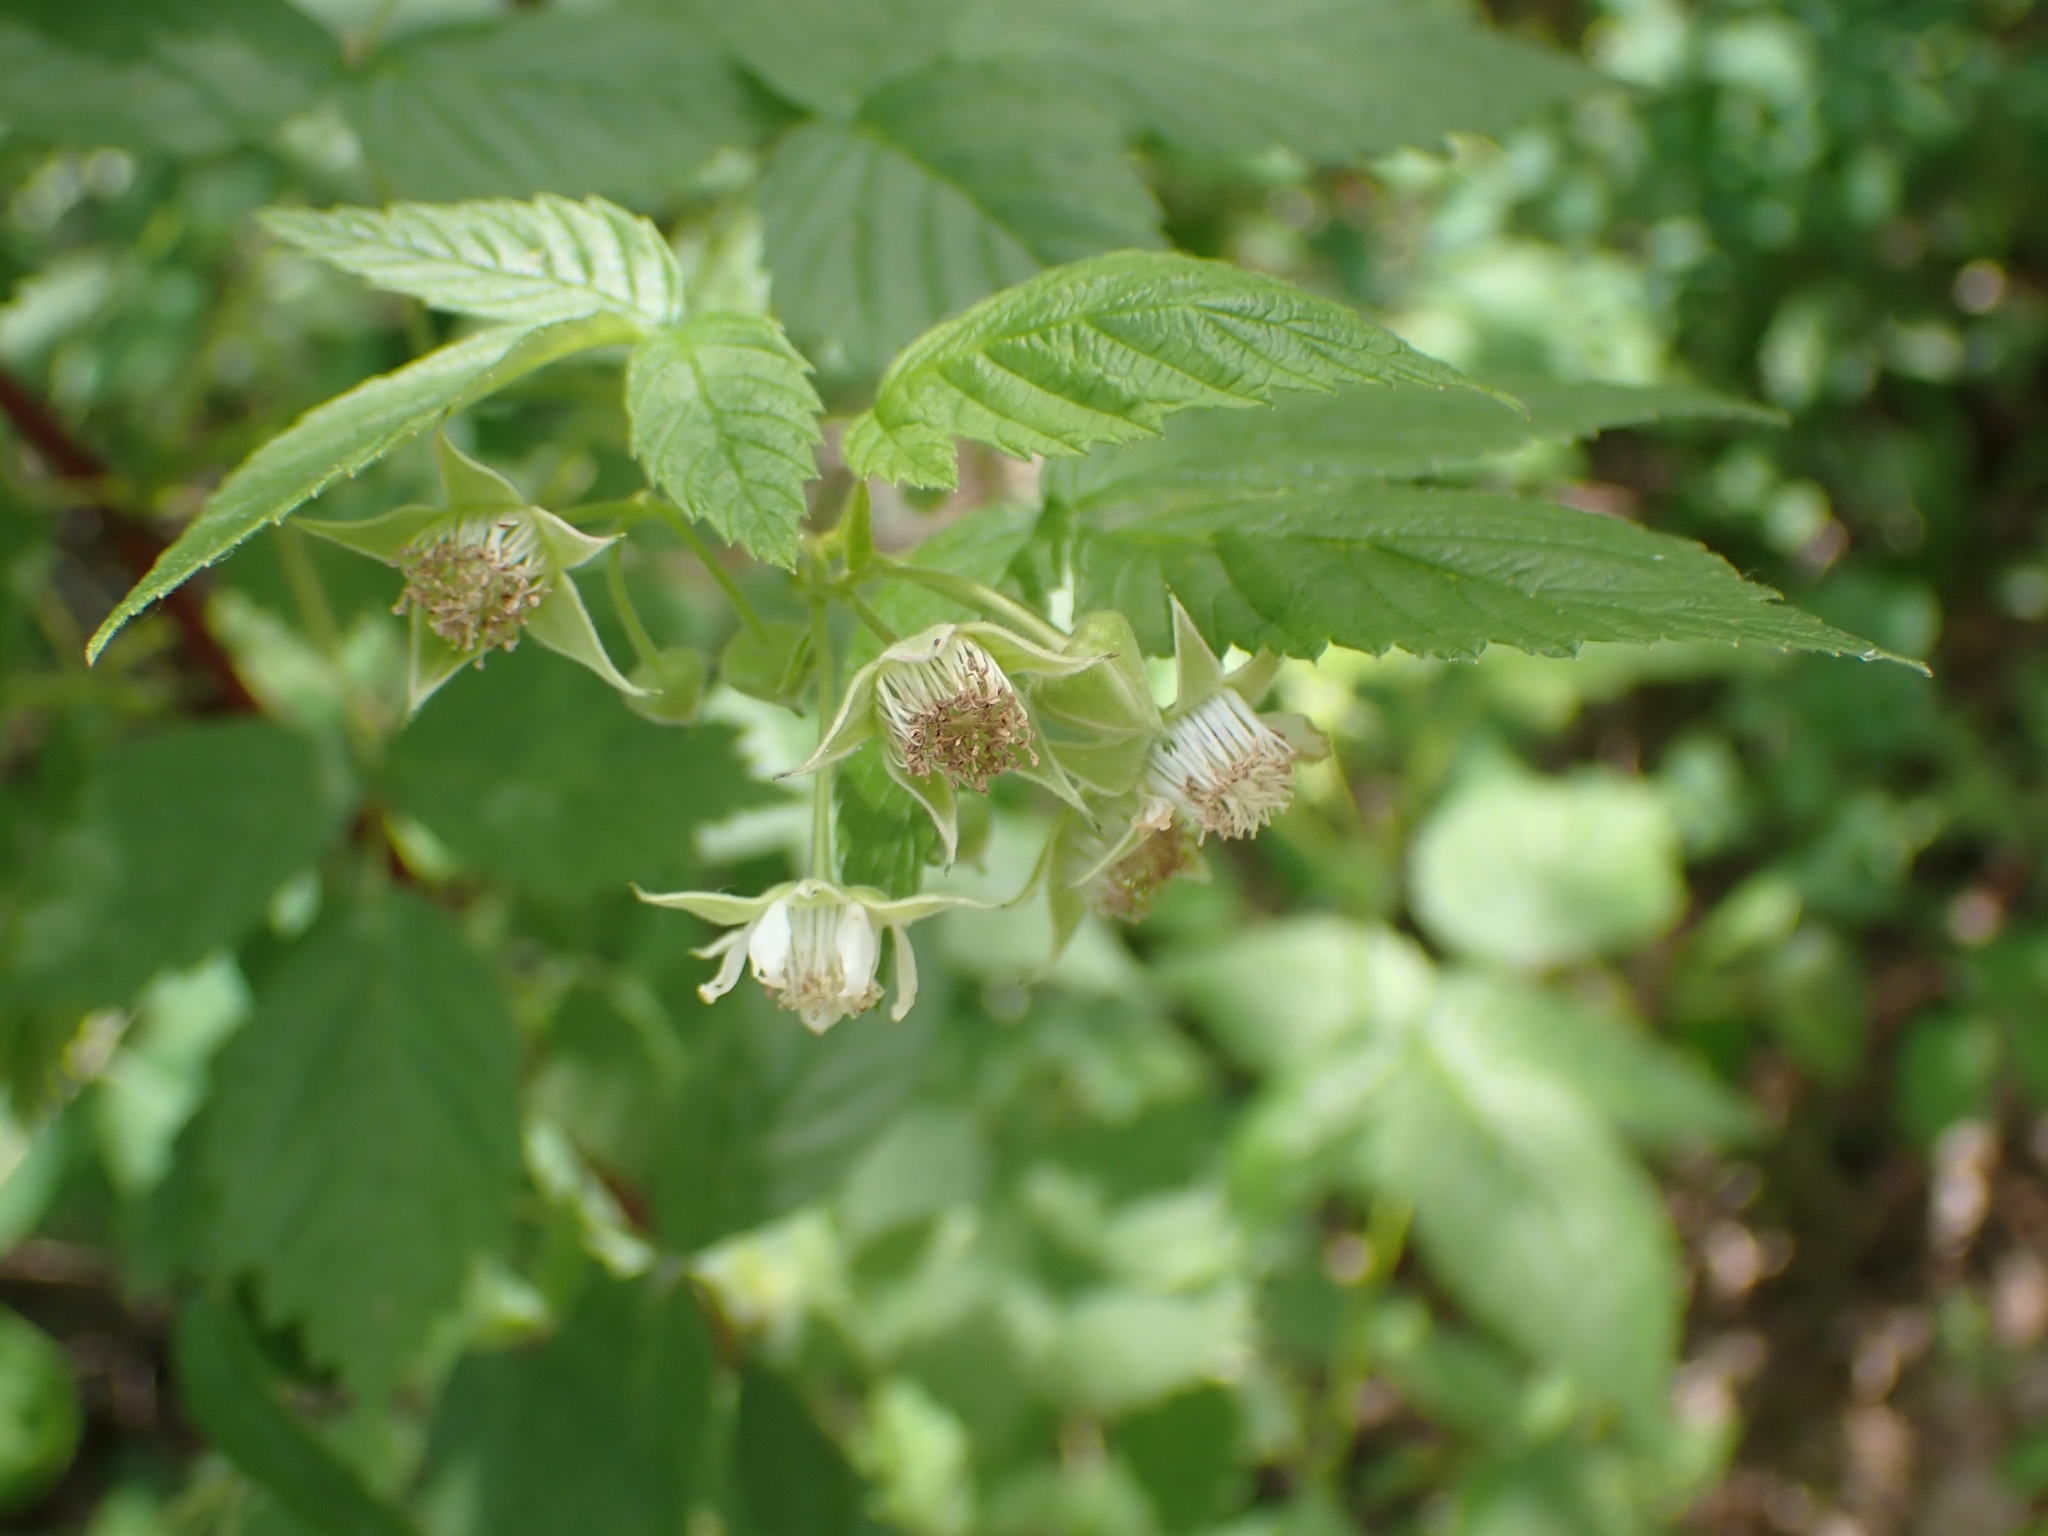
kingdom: Plantae
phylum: Tracheophyta
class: Magnoliopsida
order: Rosales
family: Rosaceae
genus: Rubus
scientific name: Rubus idaeus
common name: Raspberry
